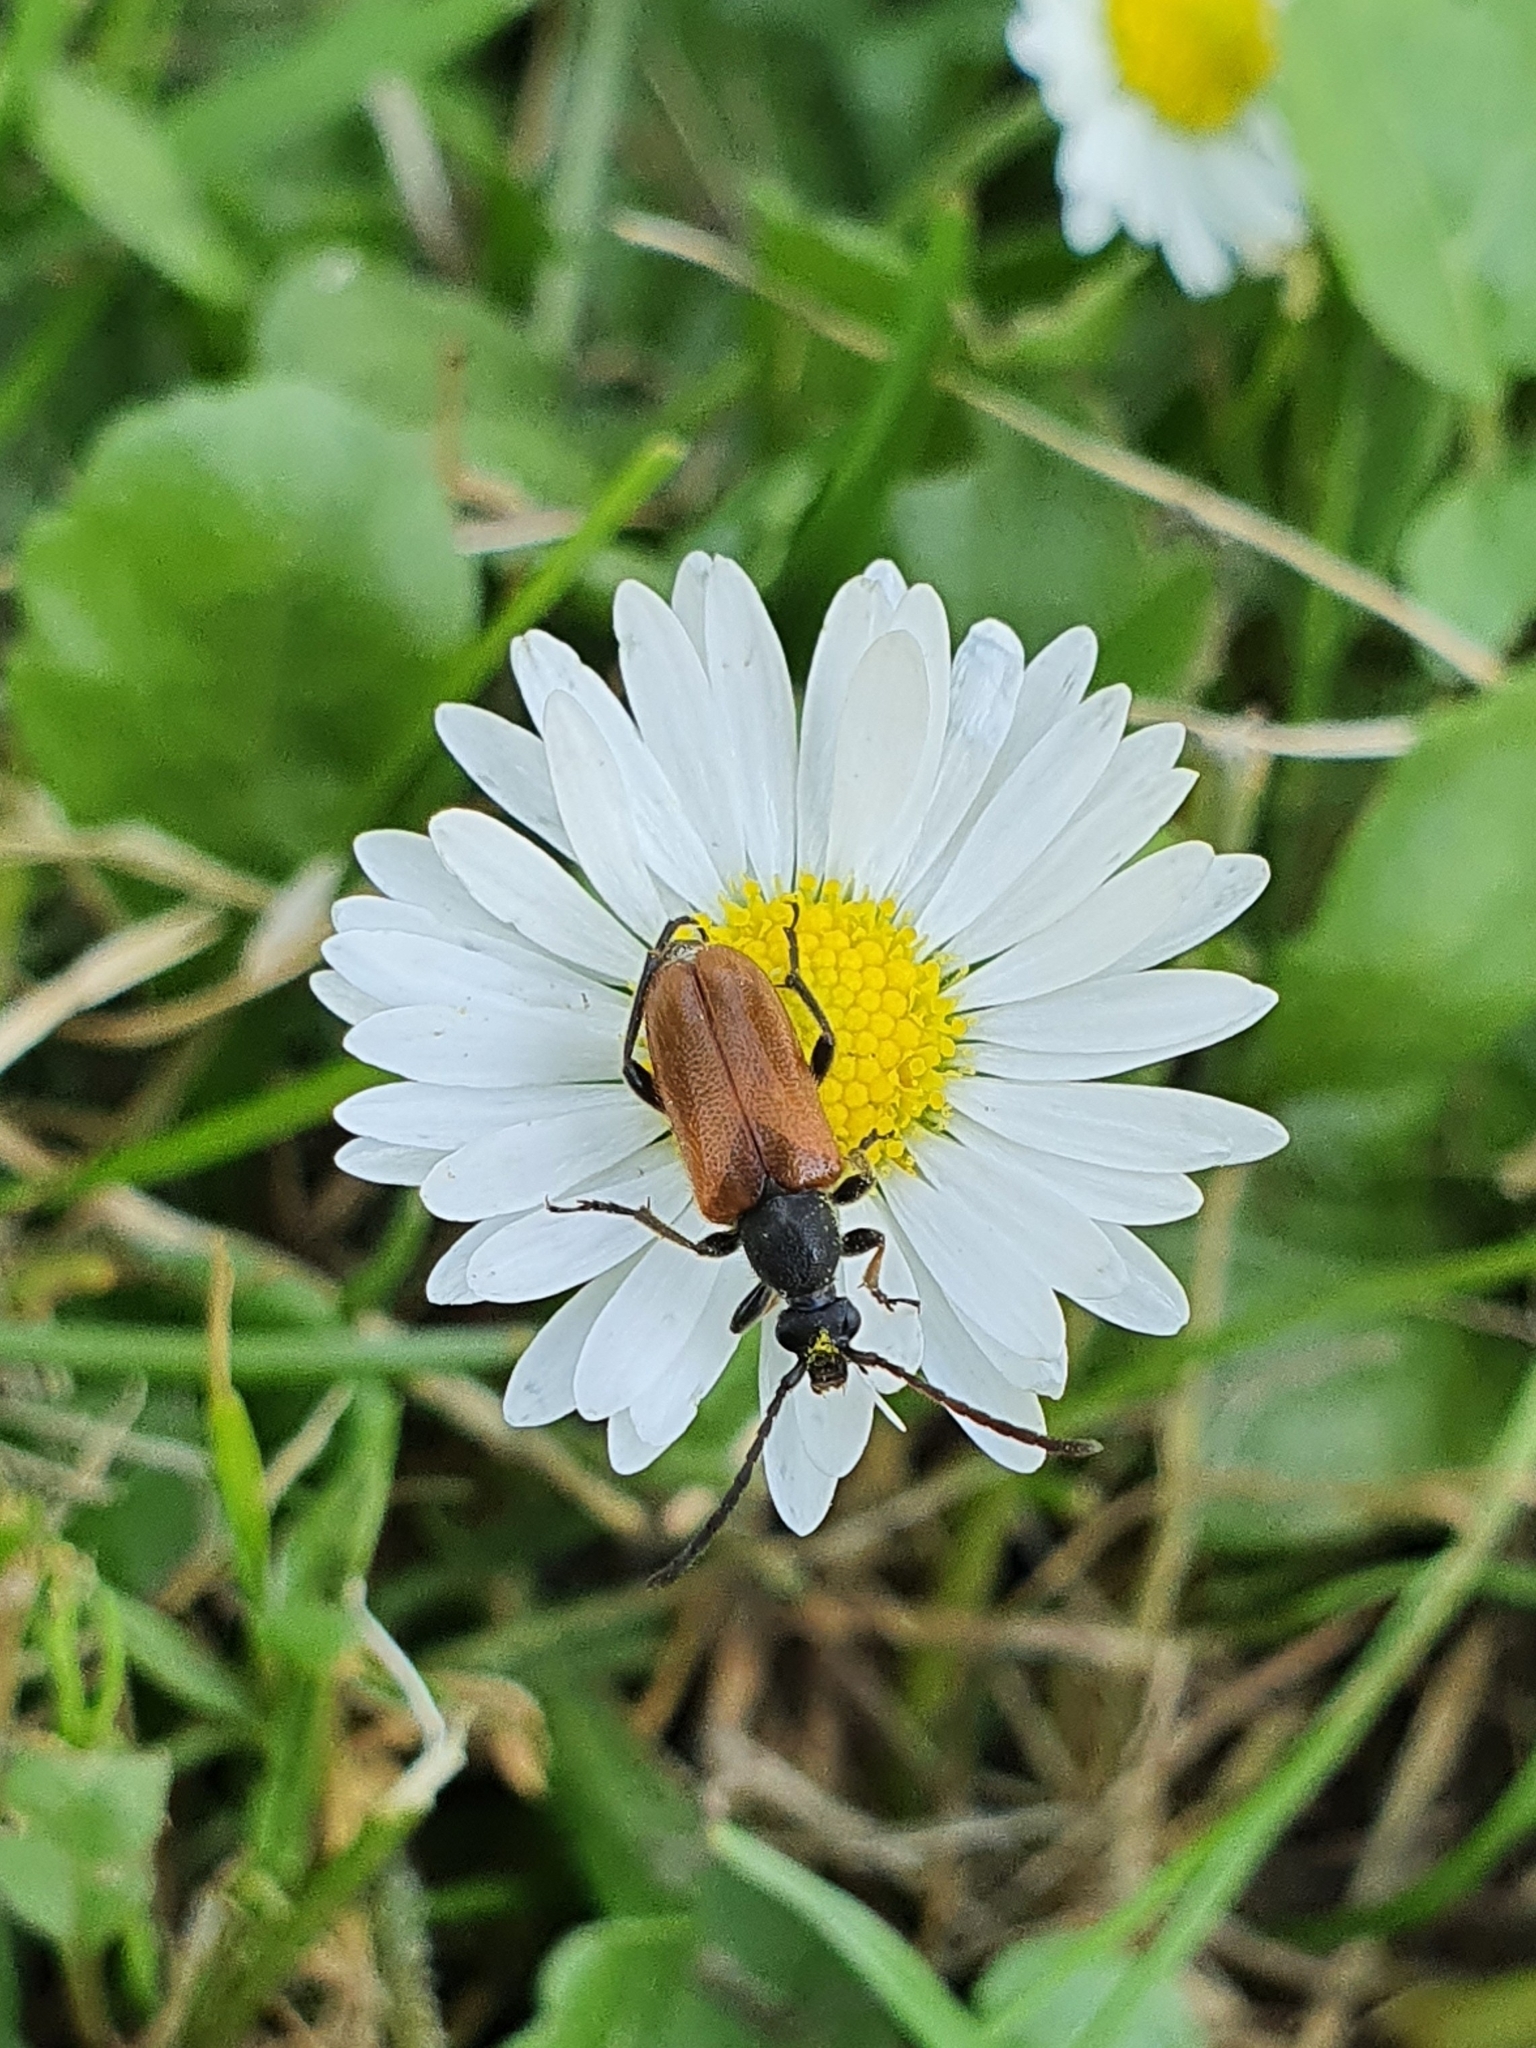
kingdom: Animalia
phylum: Arthropoda
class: Insecta
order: Coleoptera
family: Cerambycidae
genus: Pseudovadonia
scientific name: Pseudovadonia livida
